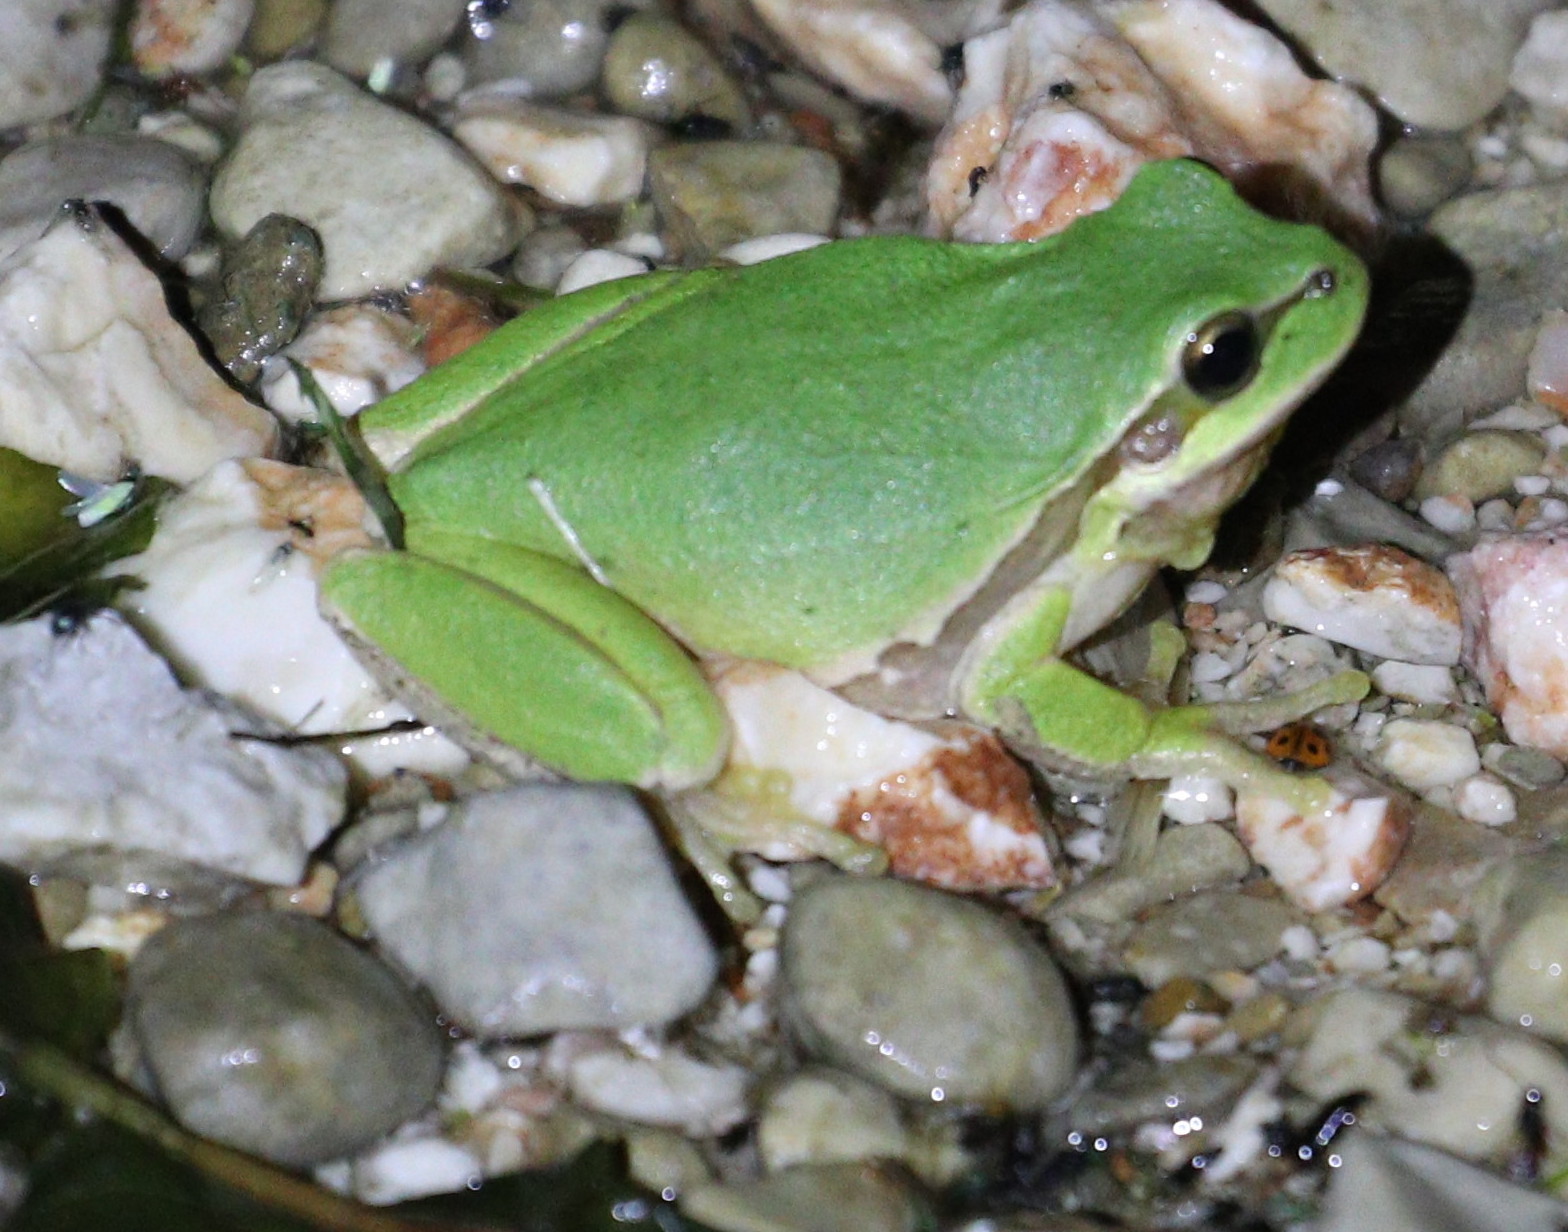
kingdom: Animalia
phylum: Chordata
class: Amphibia
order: Anura
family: Hylidae
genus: Hyla
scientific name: Hyla savignyi
